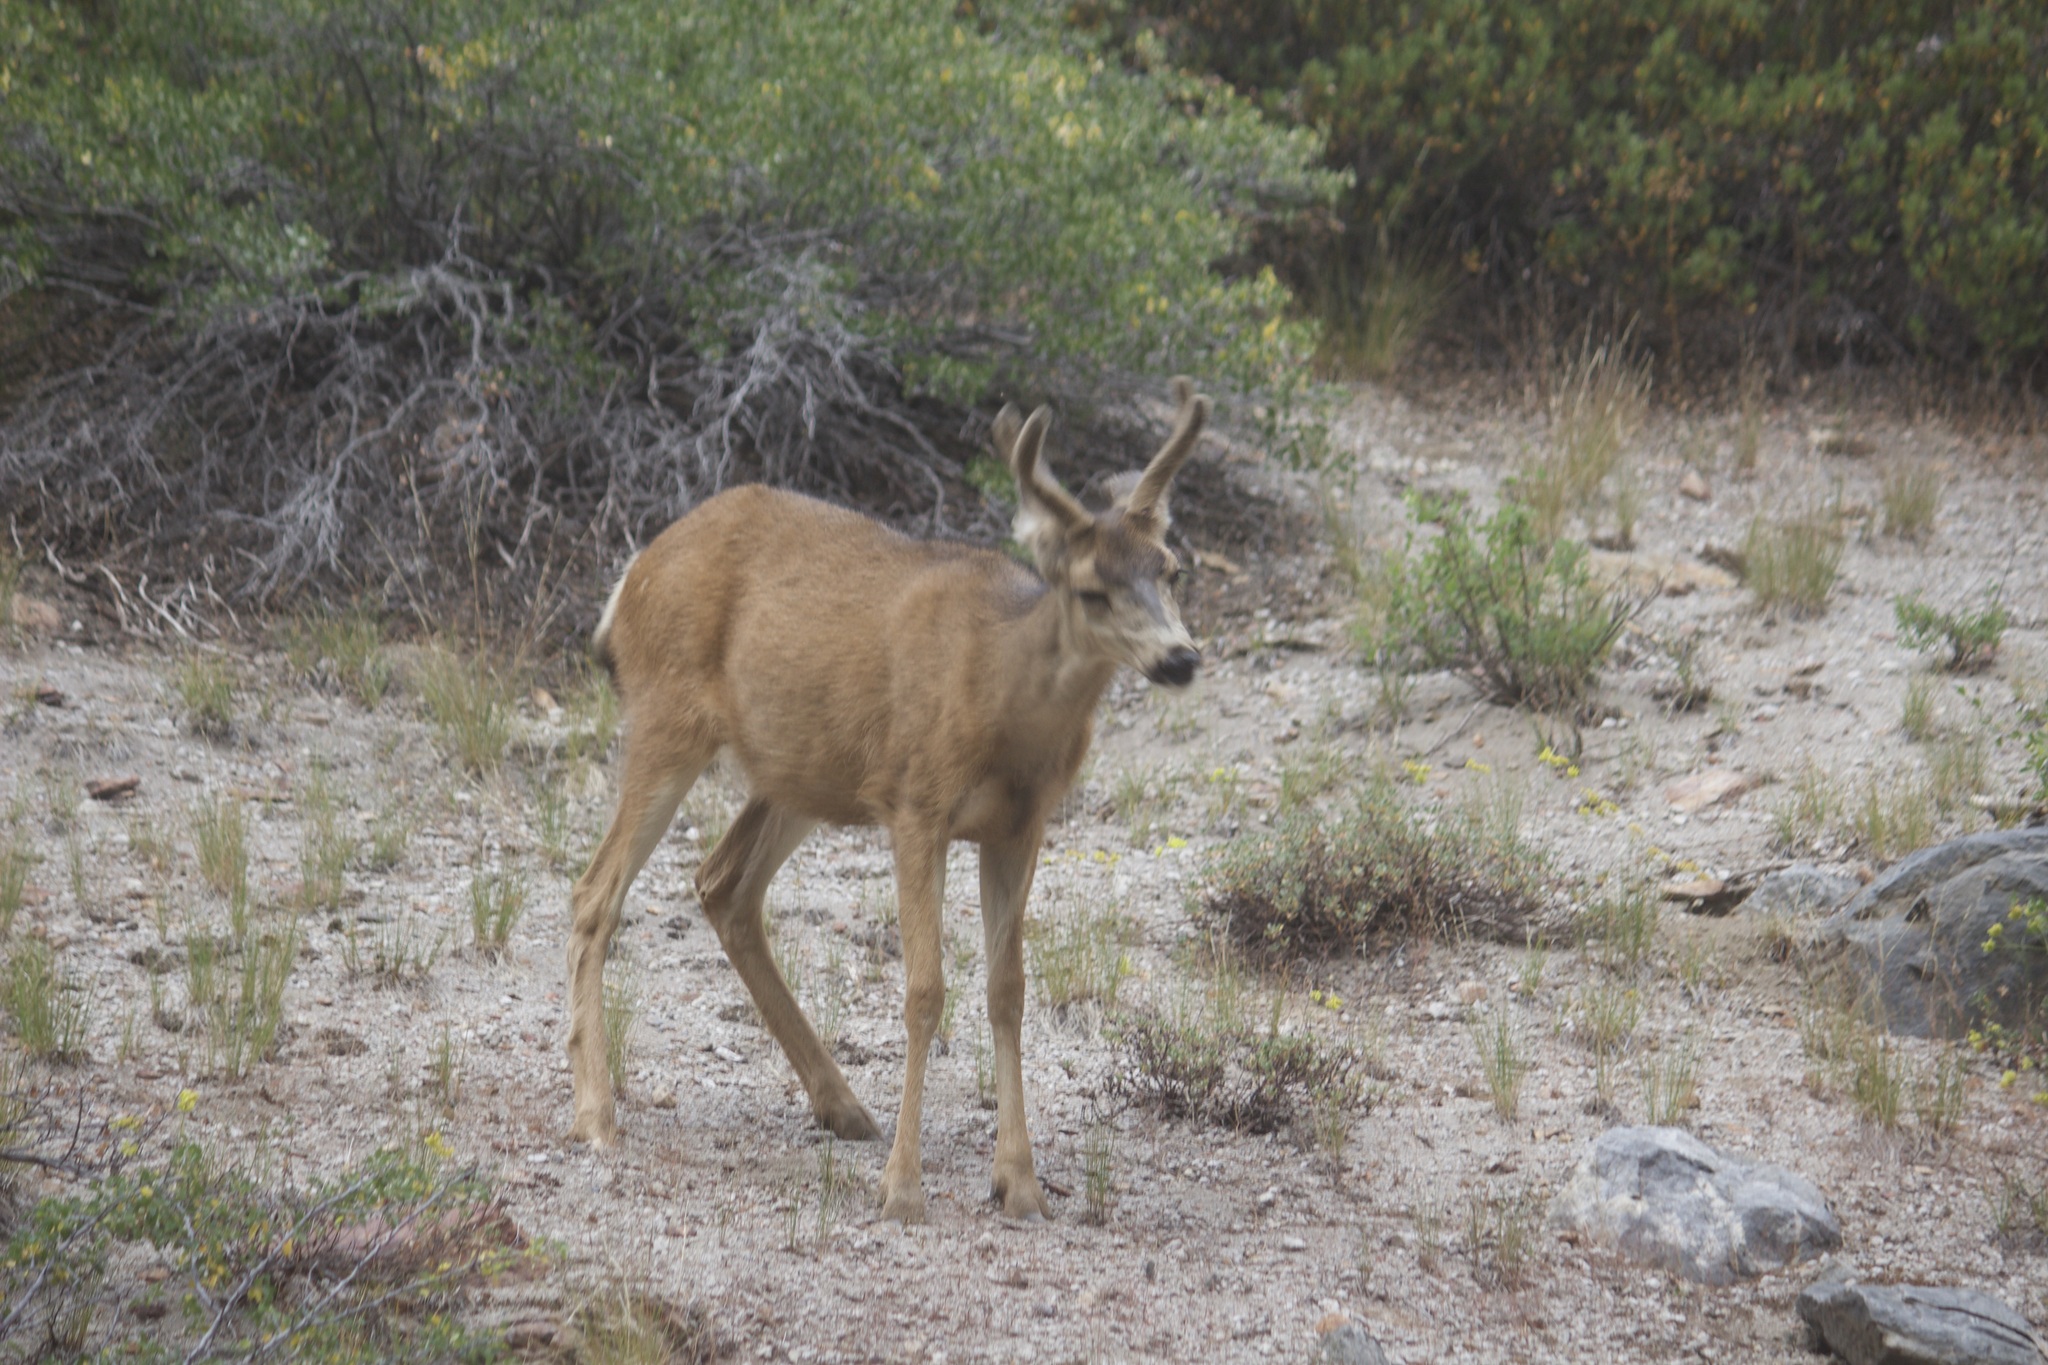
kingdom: Animalia
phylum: Chordata
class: Mammalia
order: Artiodactyla
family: Cervidae
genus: Odocoileus
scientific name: Odocoileus hemionus
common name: Mule deer
